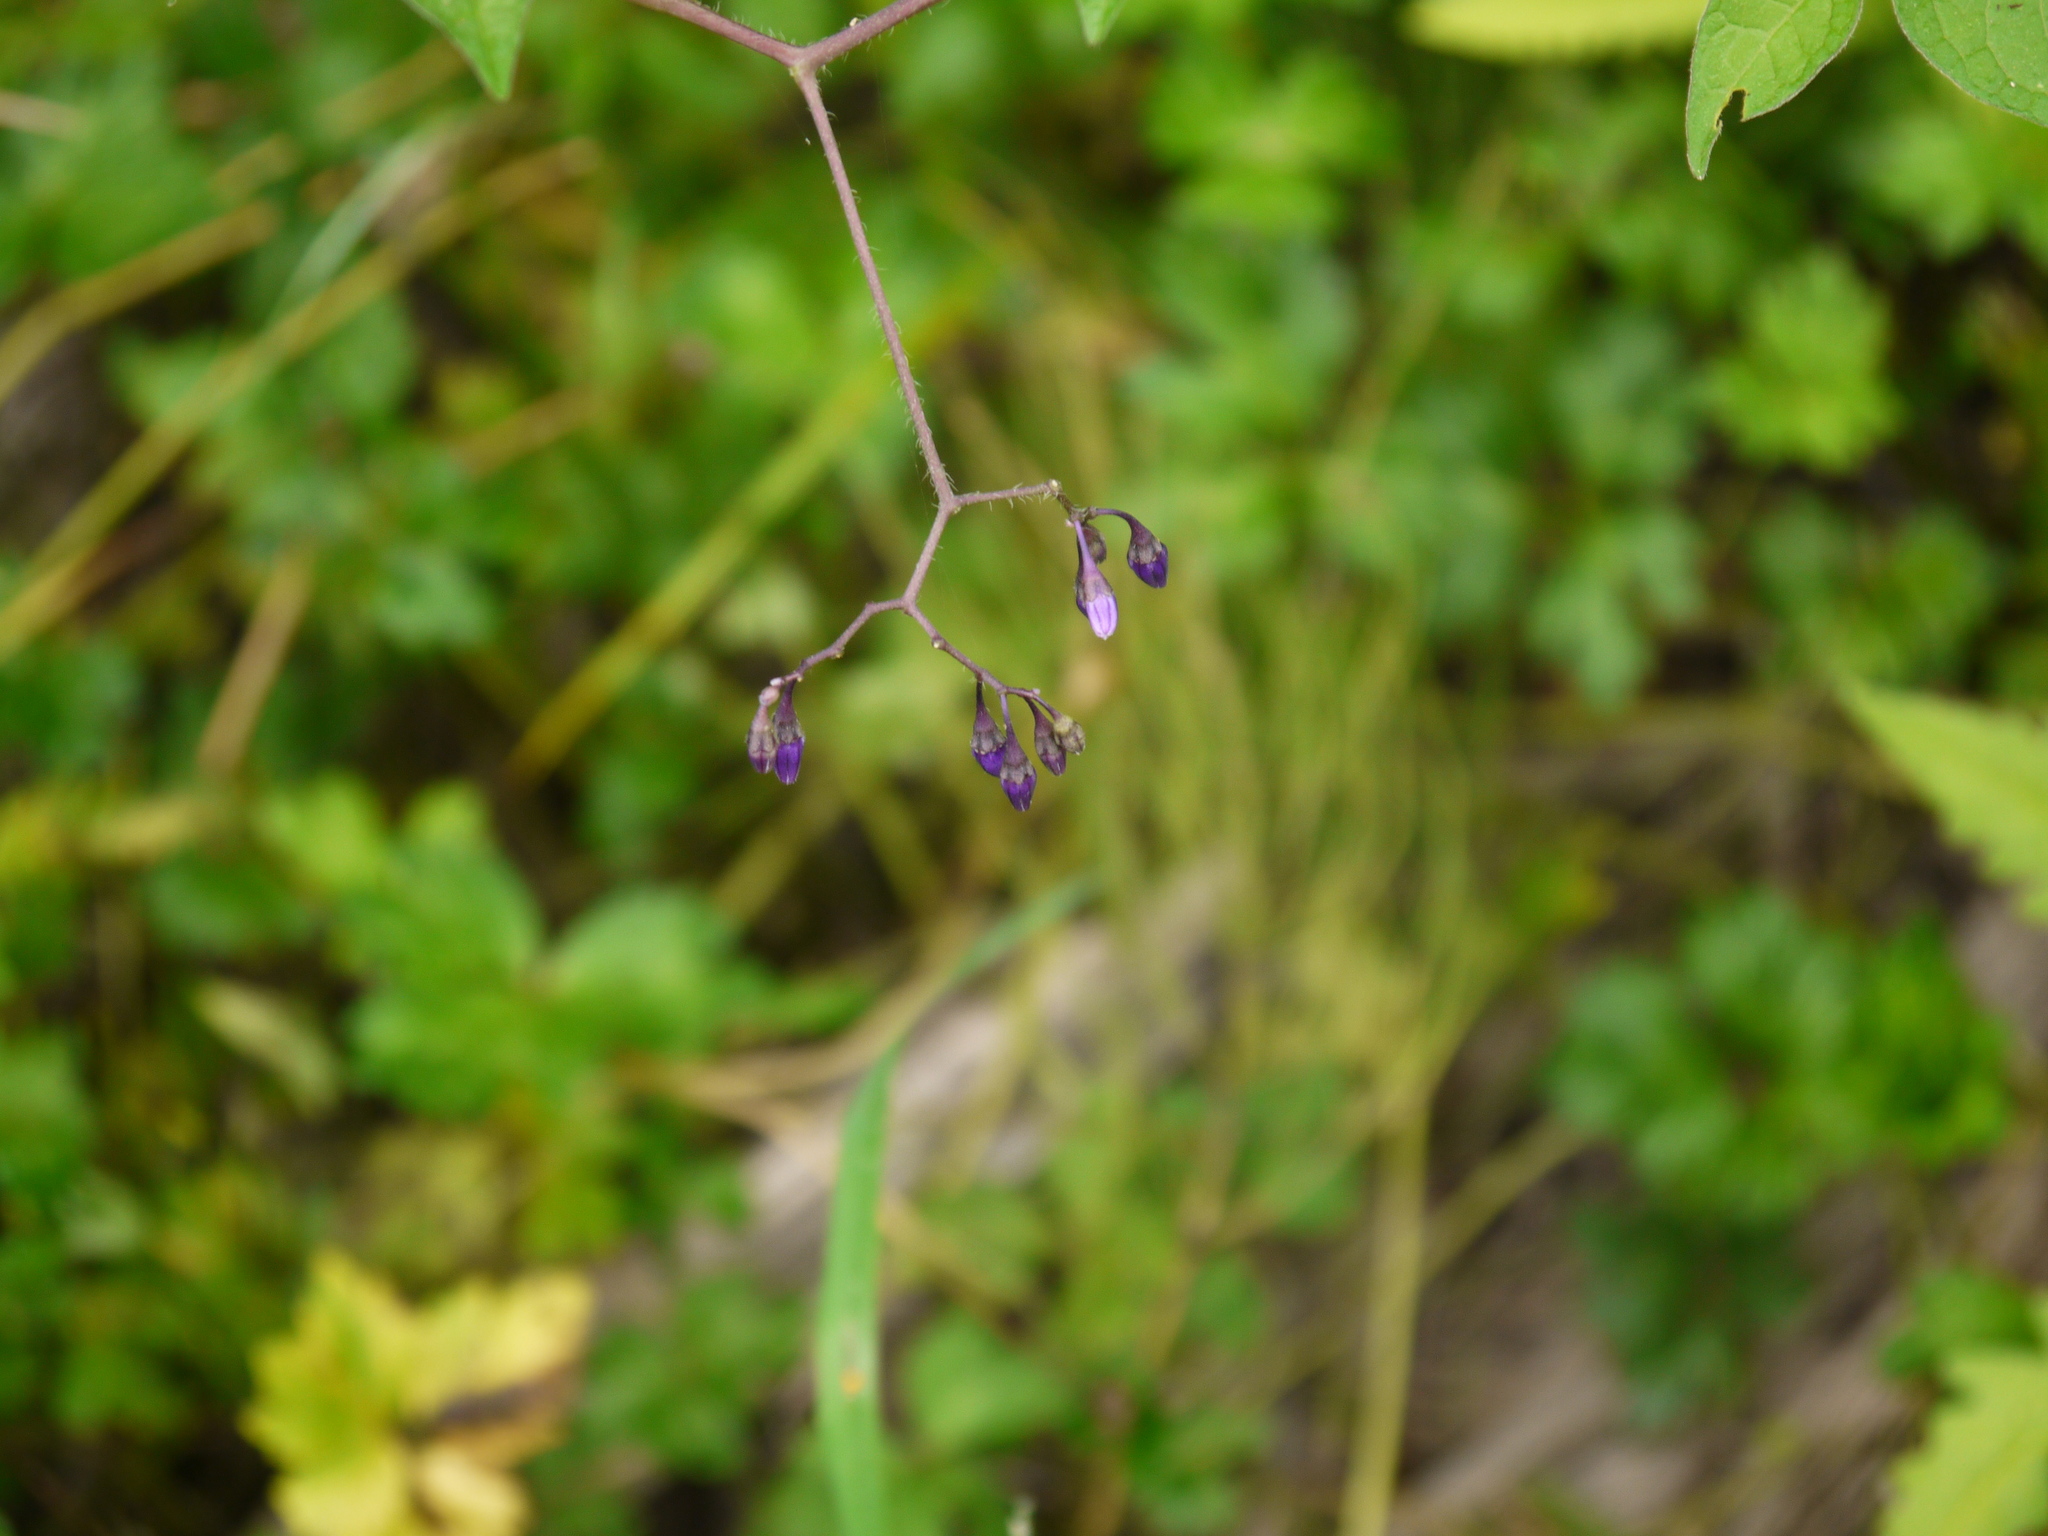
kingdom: Plantae
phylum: Tracheophyta
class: Magnoliopsida
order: Solanales
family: Solanaceae
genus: Solanum
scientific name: Solanum dulcamara
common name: Climbing nightshade
